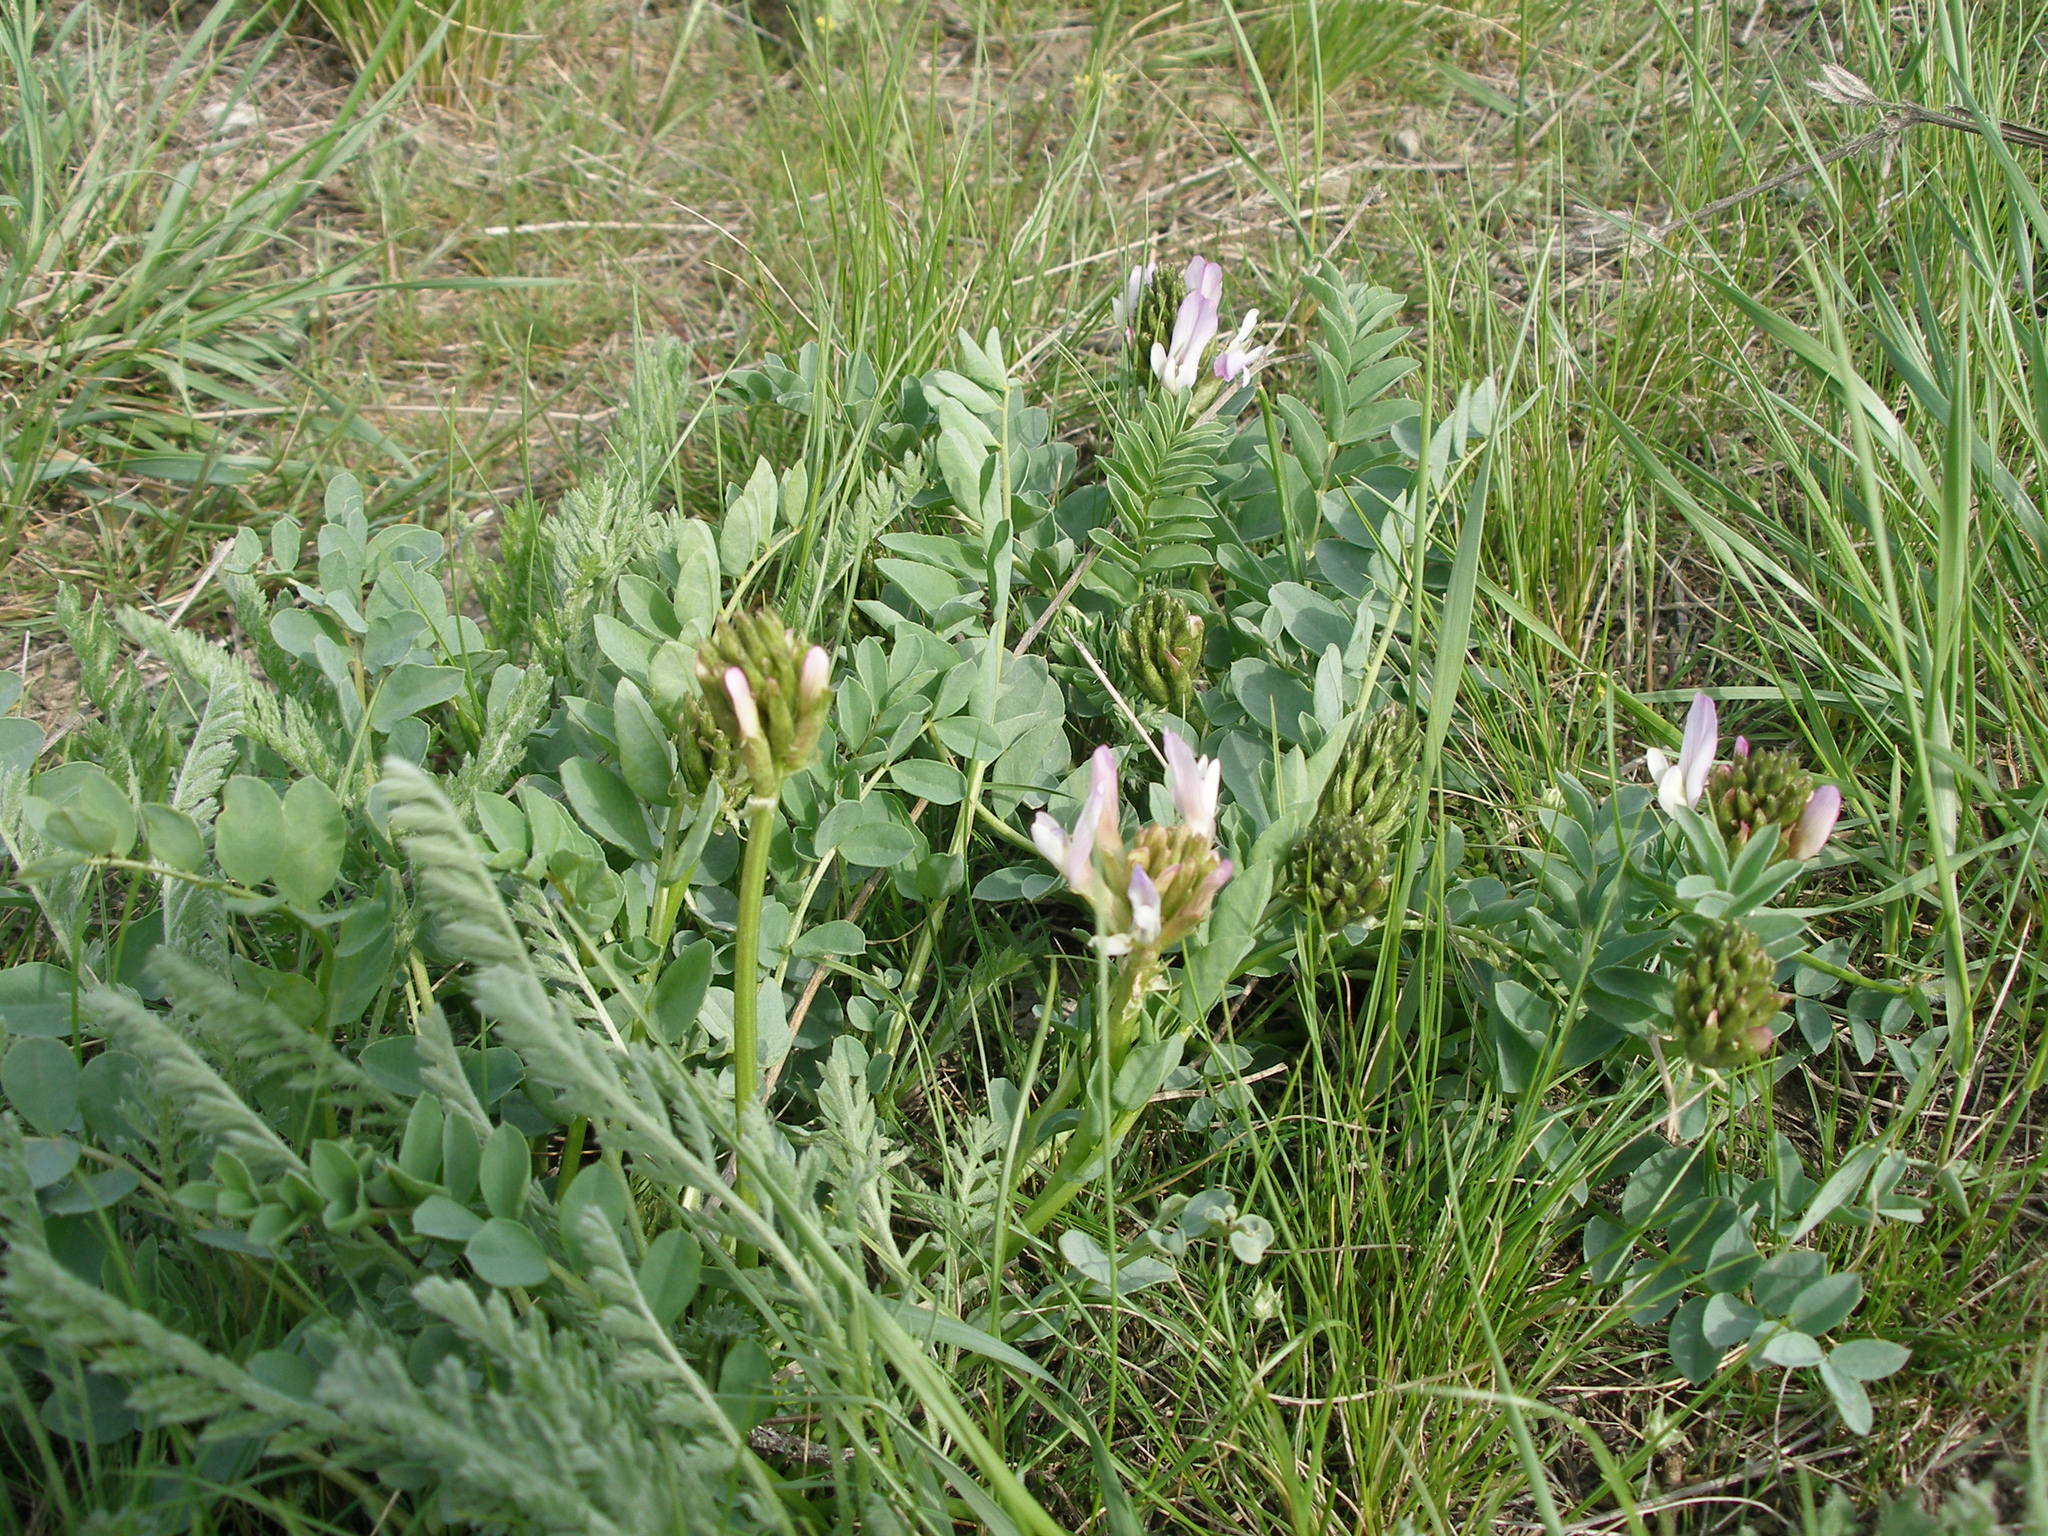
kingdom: Plantae
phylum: Tracheophyta
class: Magnoliopsida
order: Fabales
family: Fabaceae
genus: Astragalus
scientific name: Astragalus physocarpus
